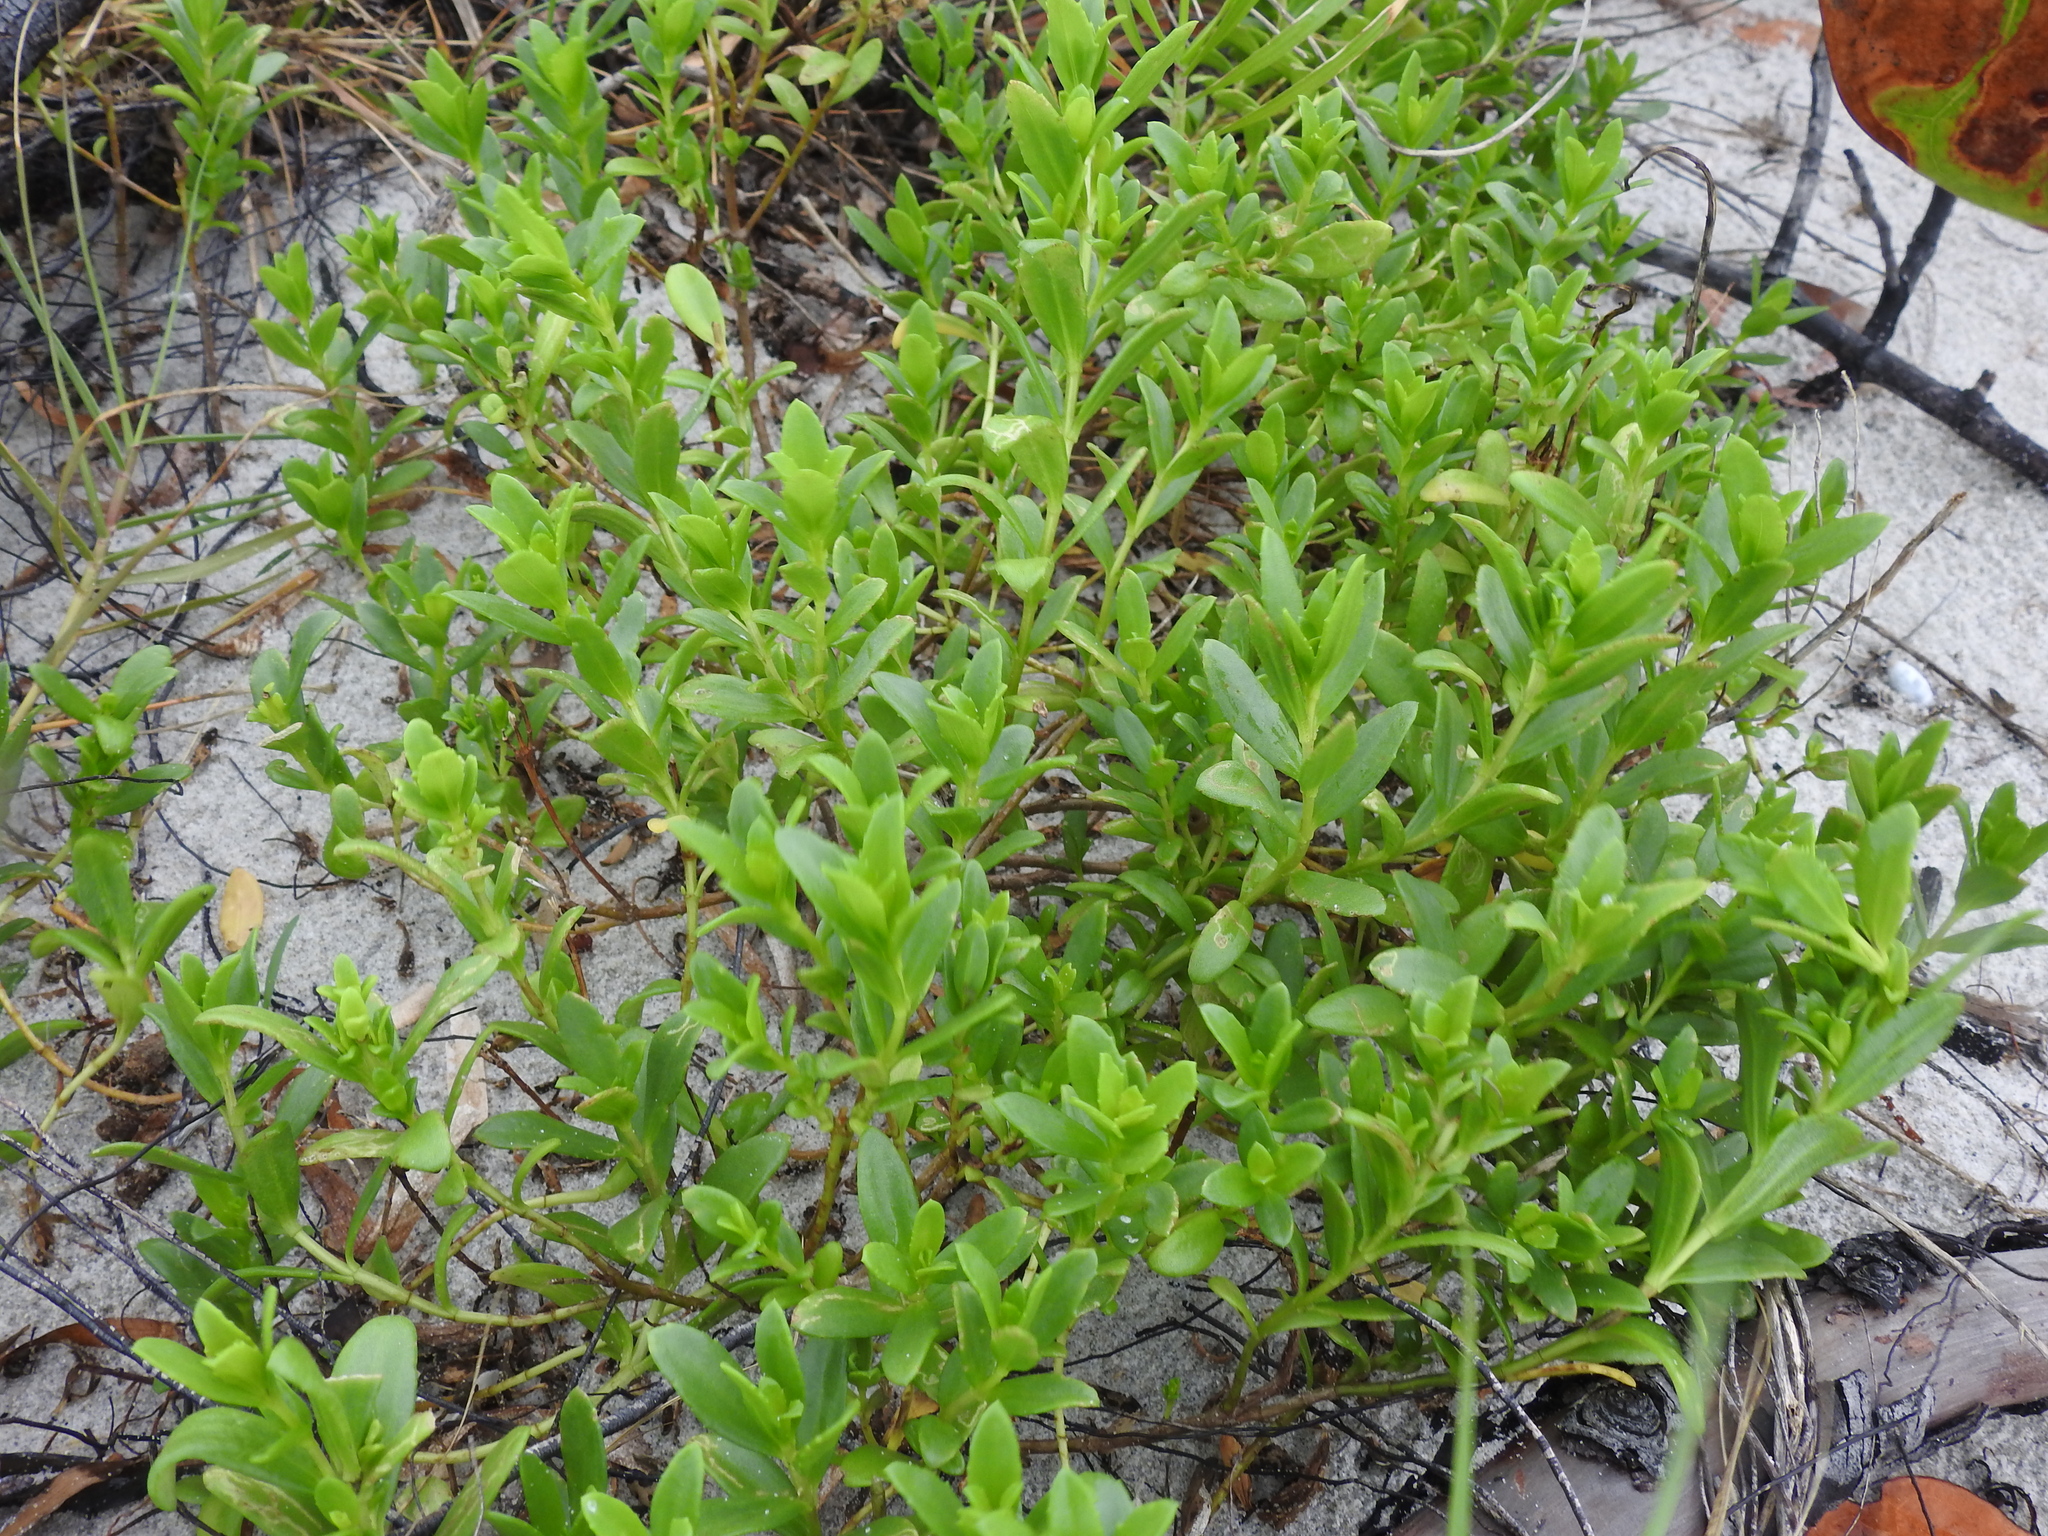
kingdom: Plantae
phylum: Tracheophyta
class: Magnoliopsida
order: Asterales
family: Asteraceae
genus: Iva
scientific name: Iva imbricata
